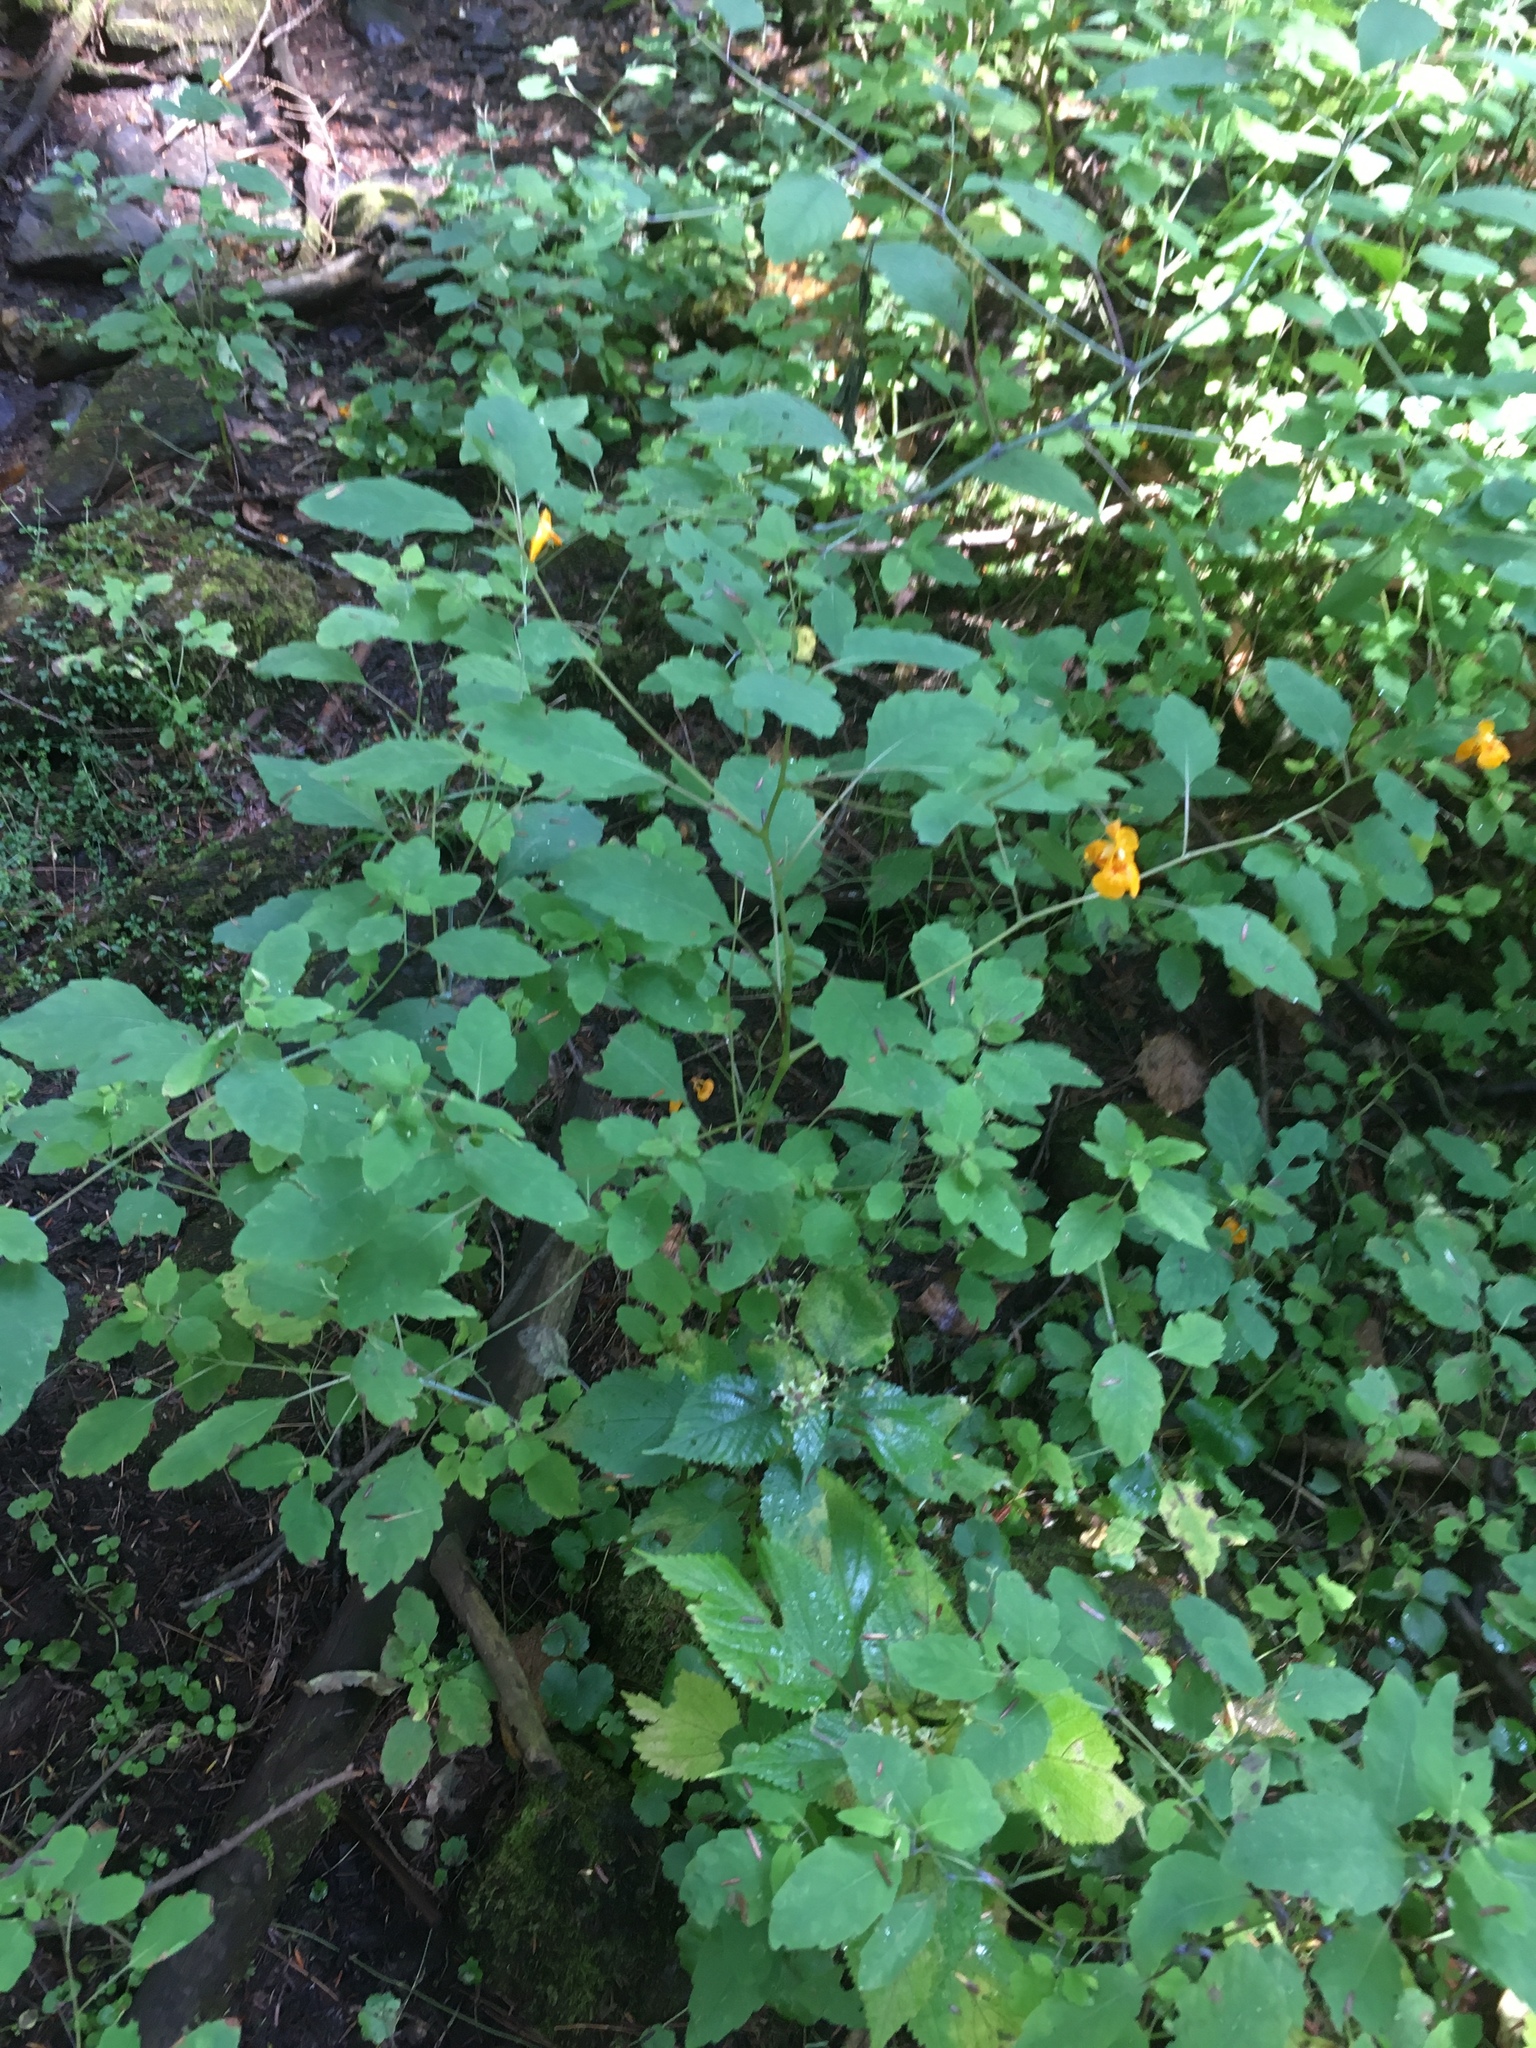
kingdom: Plantae
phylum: Tracheophyta
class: Magnoliopsida
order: Ericales
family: Balsaminaceae
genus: Impatiens
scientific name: Impatiens capensis
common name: Orange balsam
